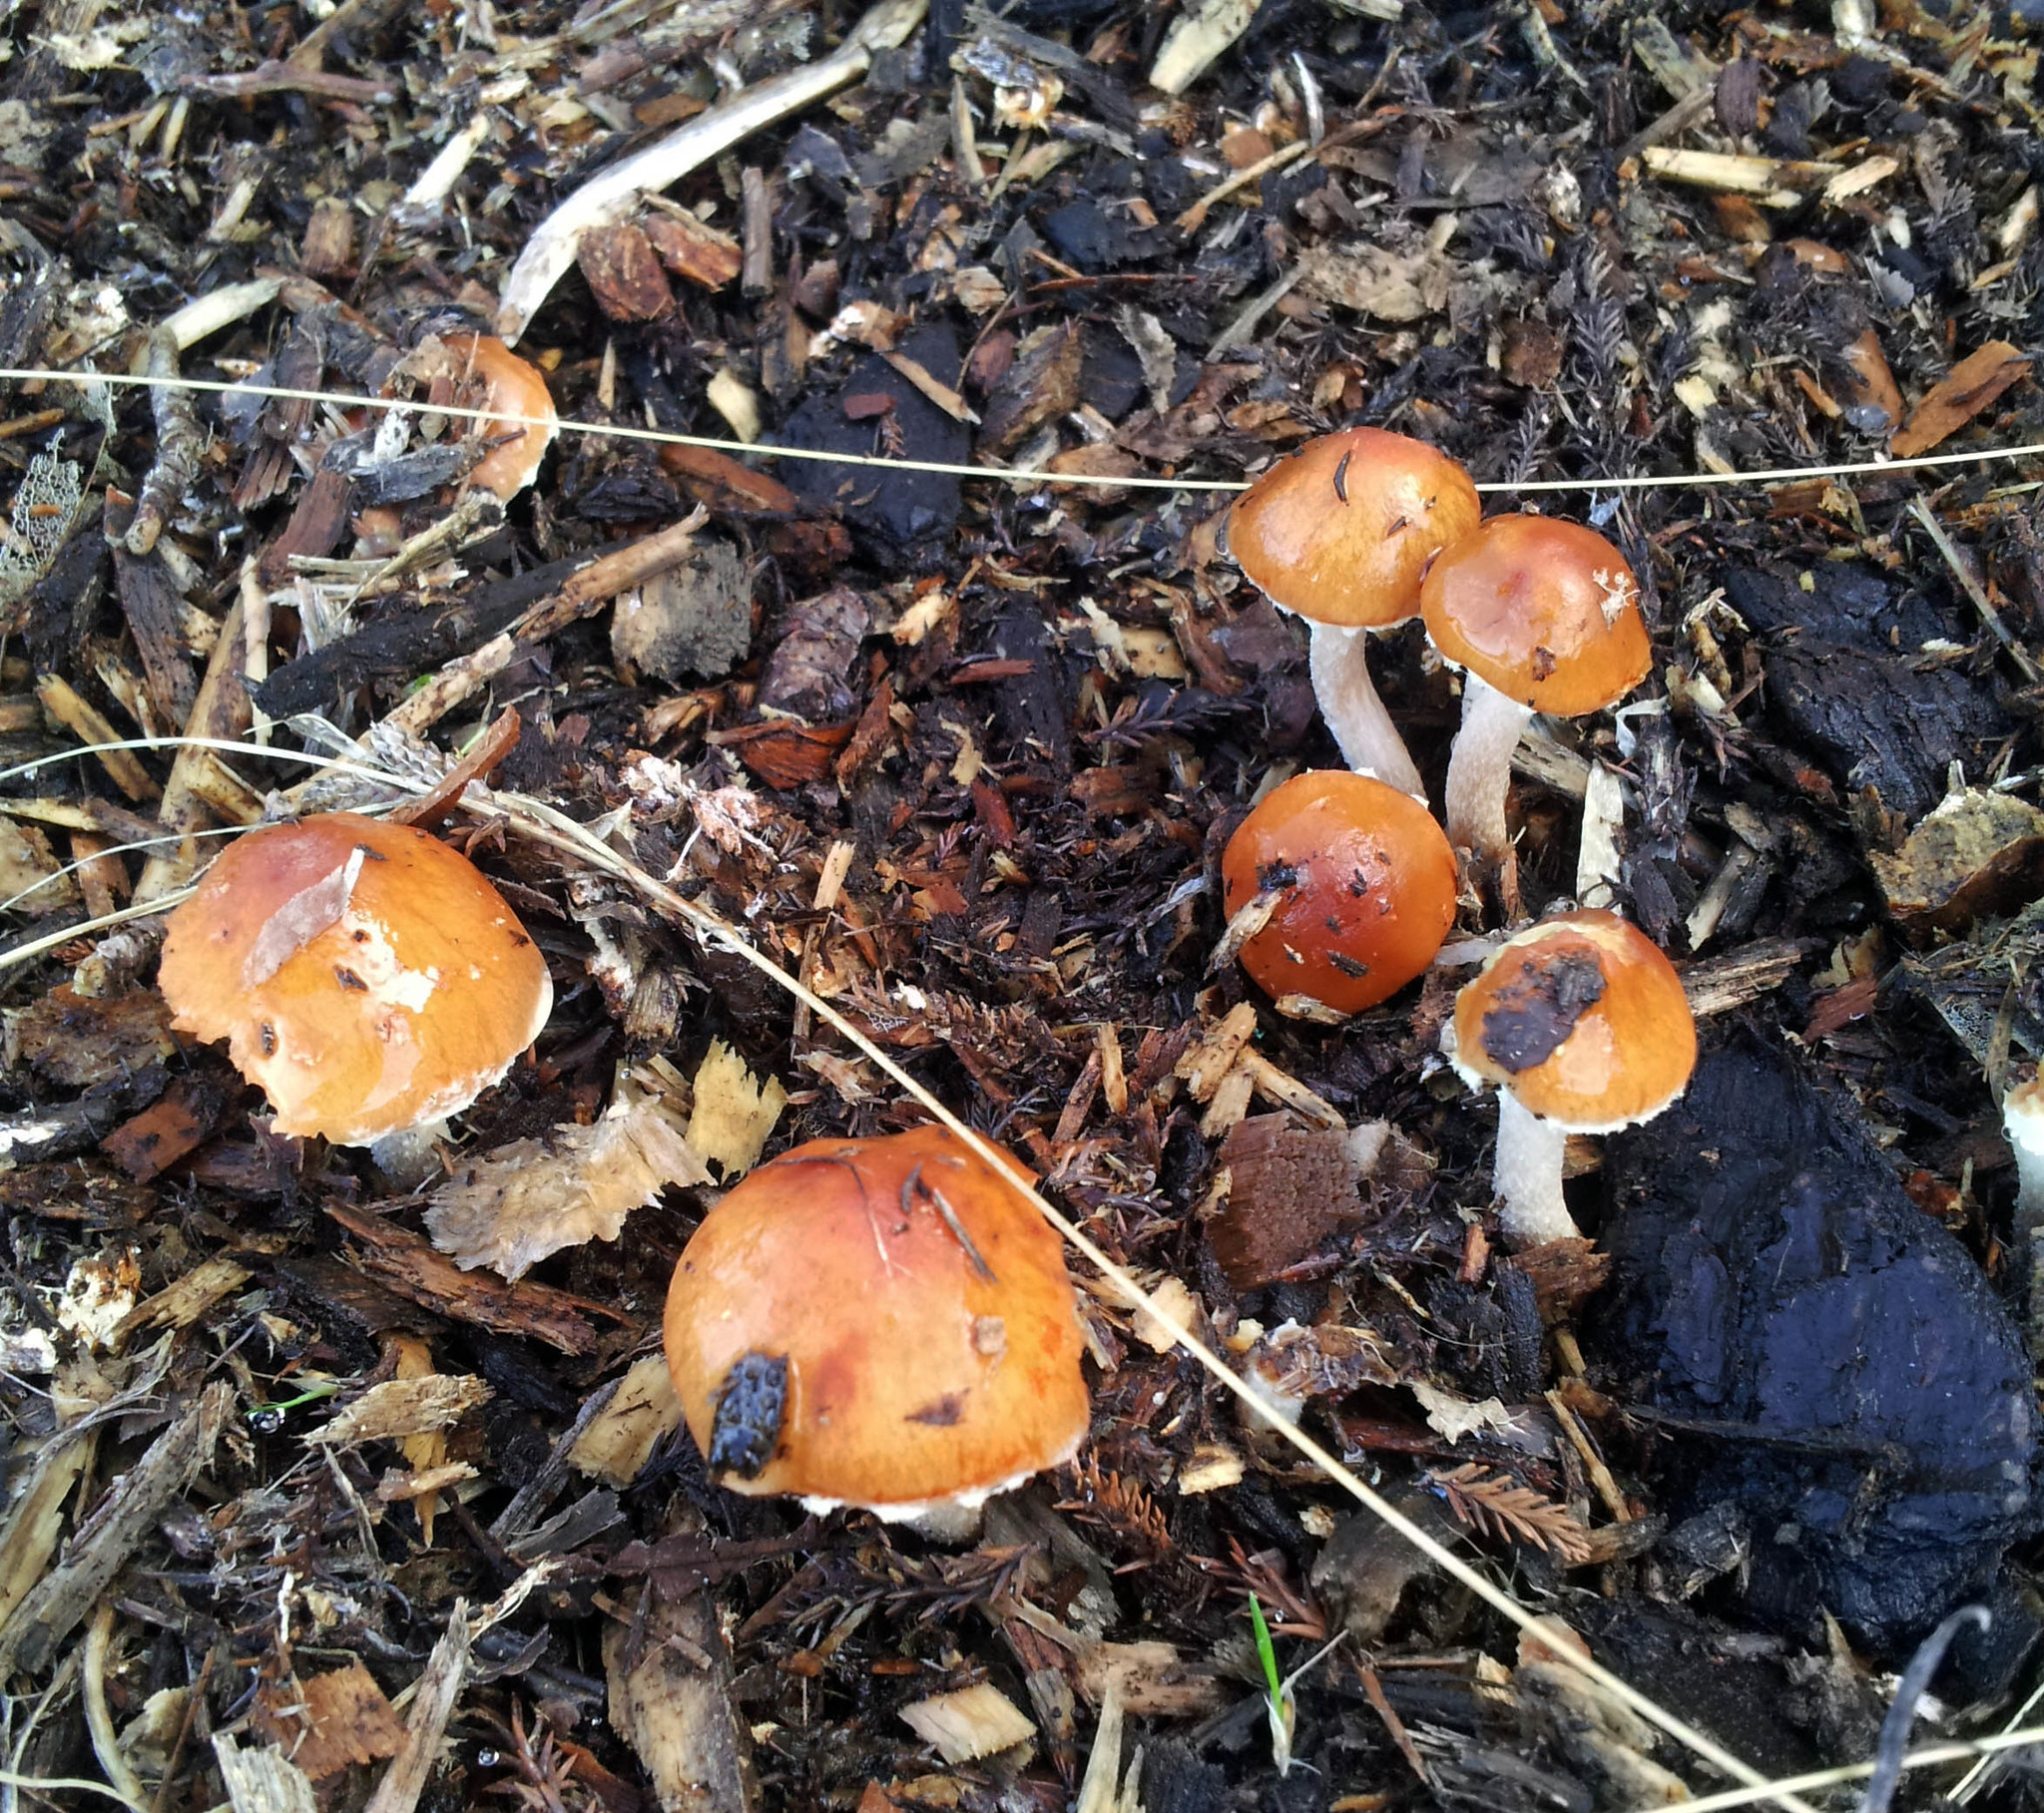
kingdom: Fungi
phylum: Basidiomycota
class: Agaricomycetes
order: Agaricales
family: Strophariaceae
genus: Leratiomyces
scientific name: Leratiomyces ceres
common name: Redlead roundhead
